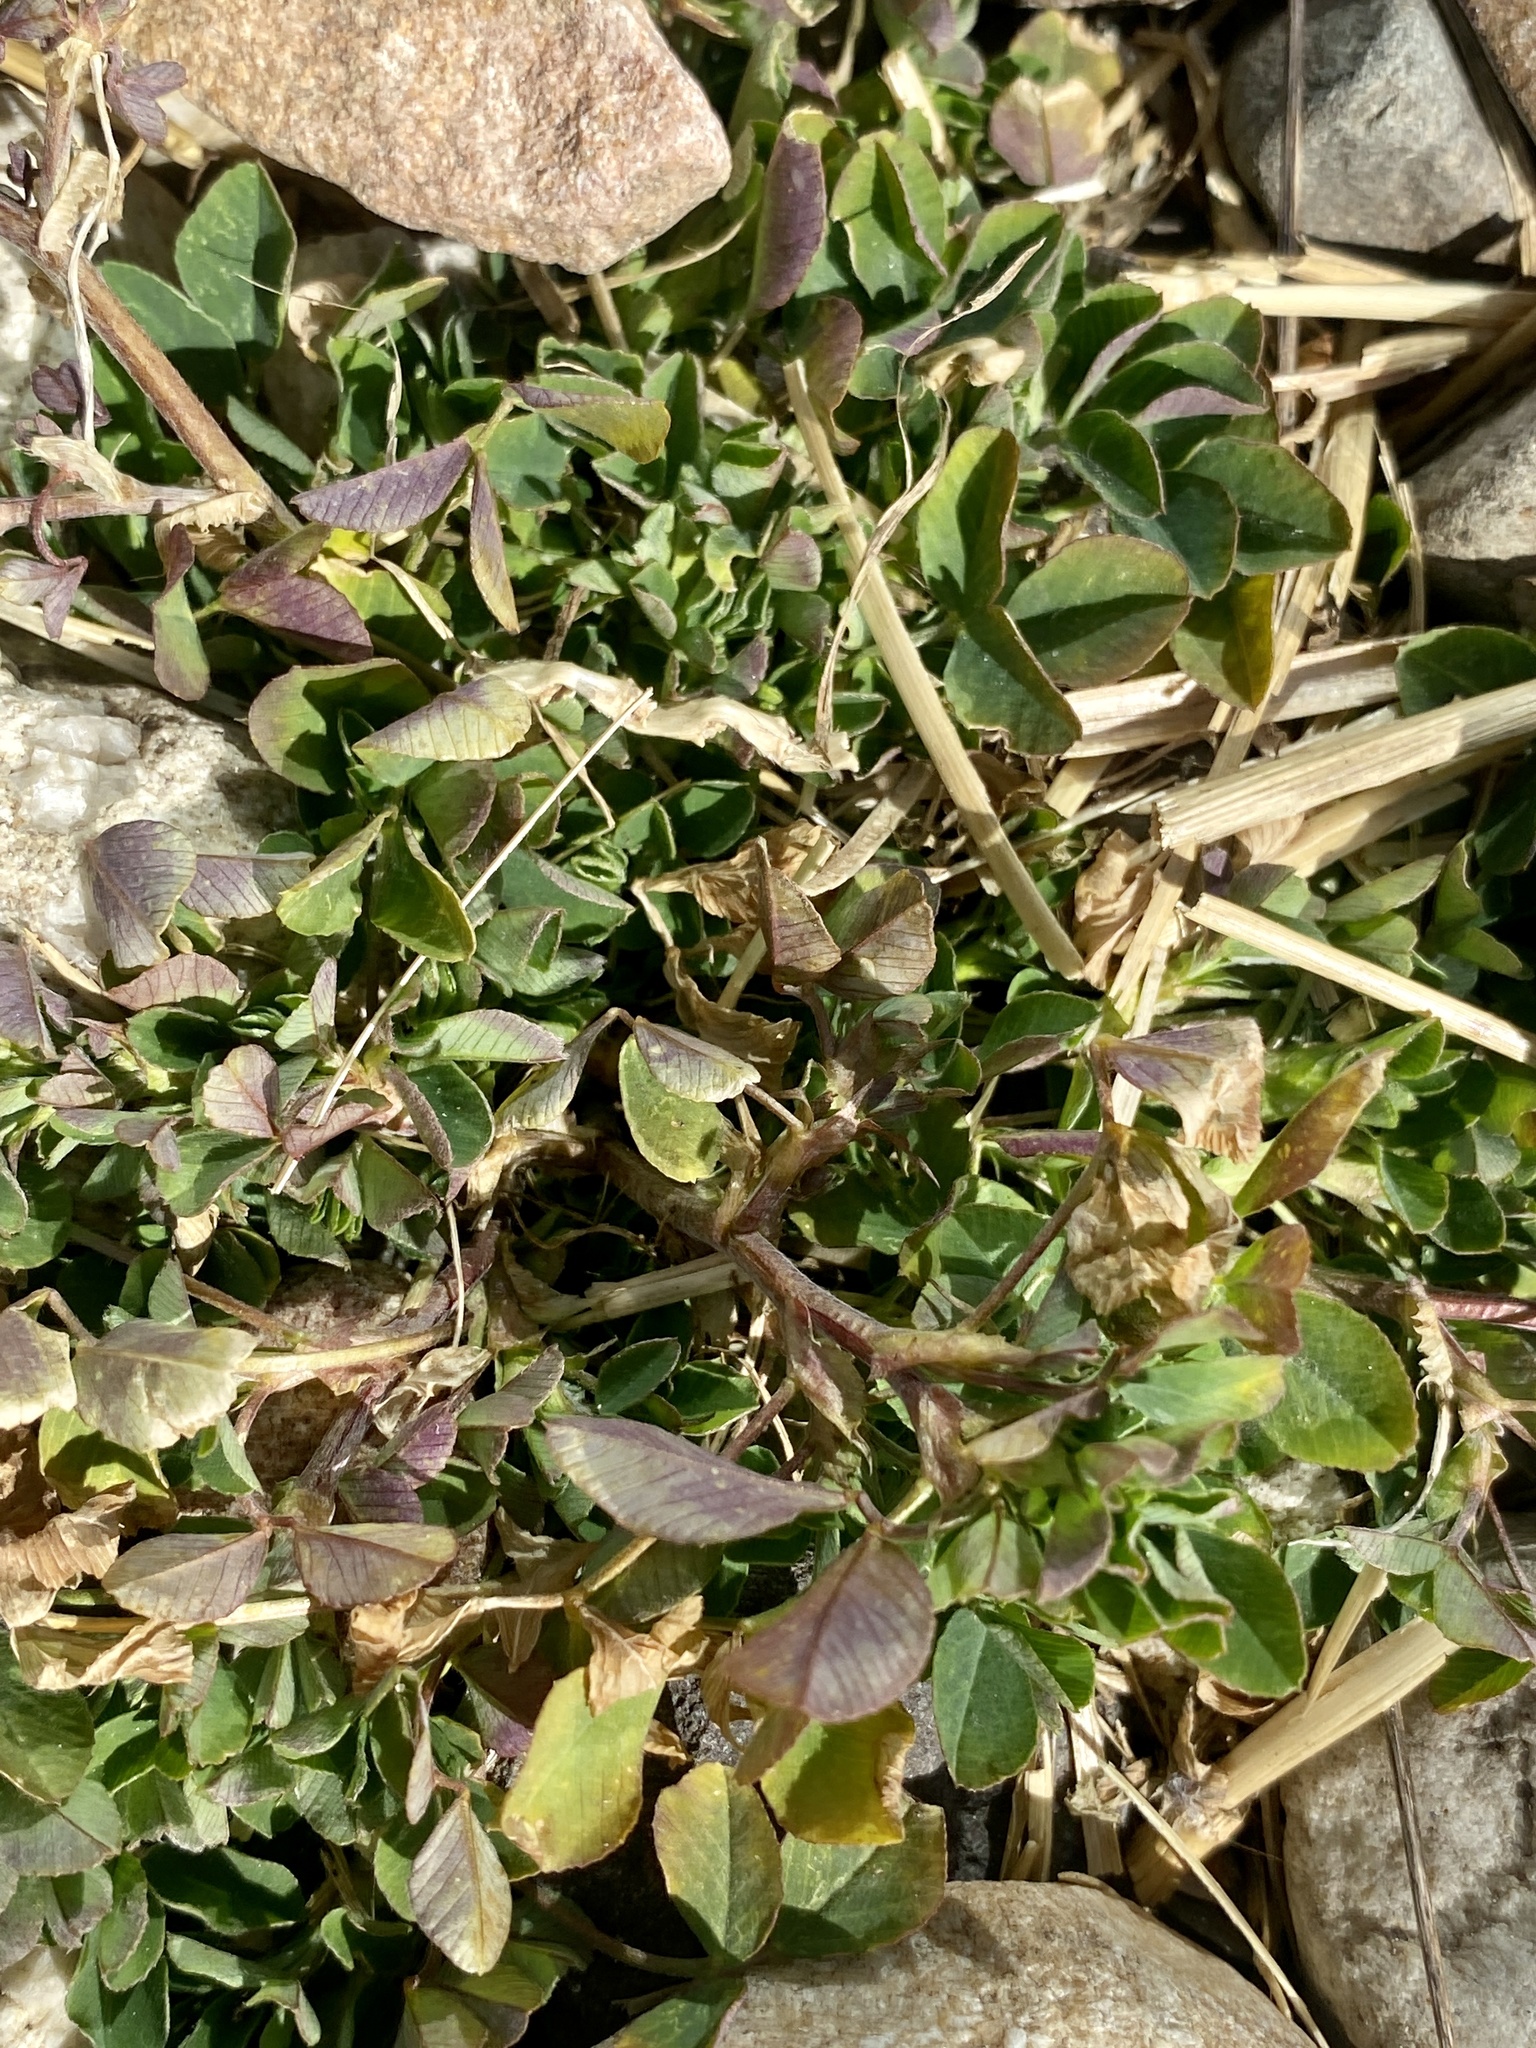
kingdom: Plantae
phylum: Tracheophyta
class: Magnoliopsida
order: Fabales
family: Fabaceae
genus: Medicago
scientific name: Medicago lupulina
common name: Black medick
